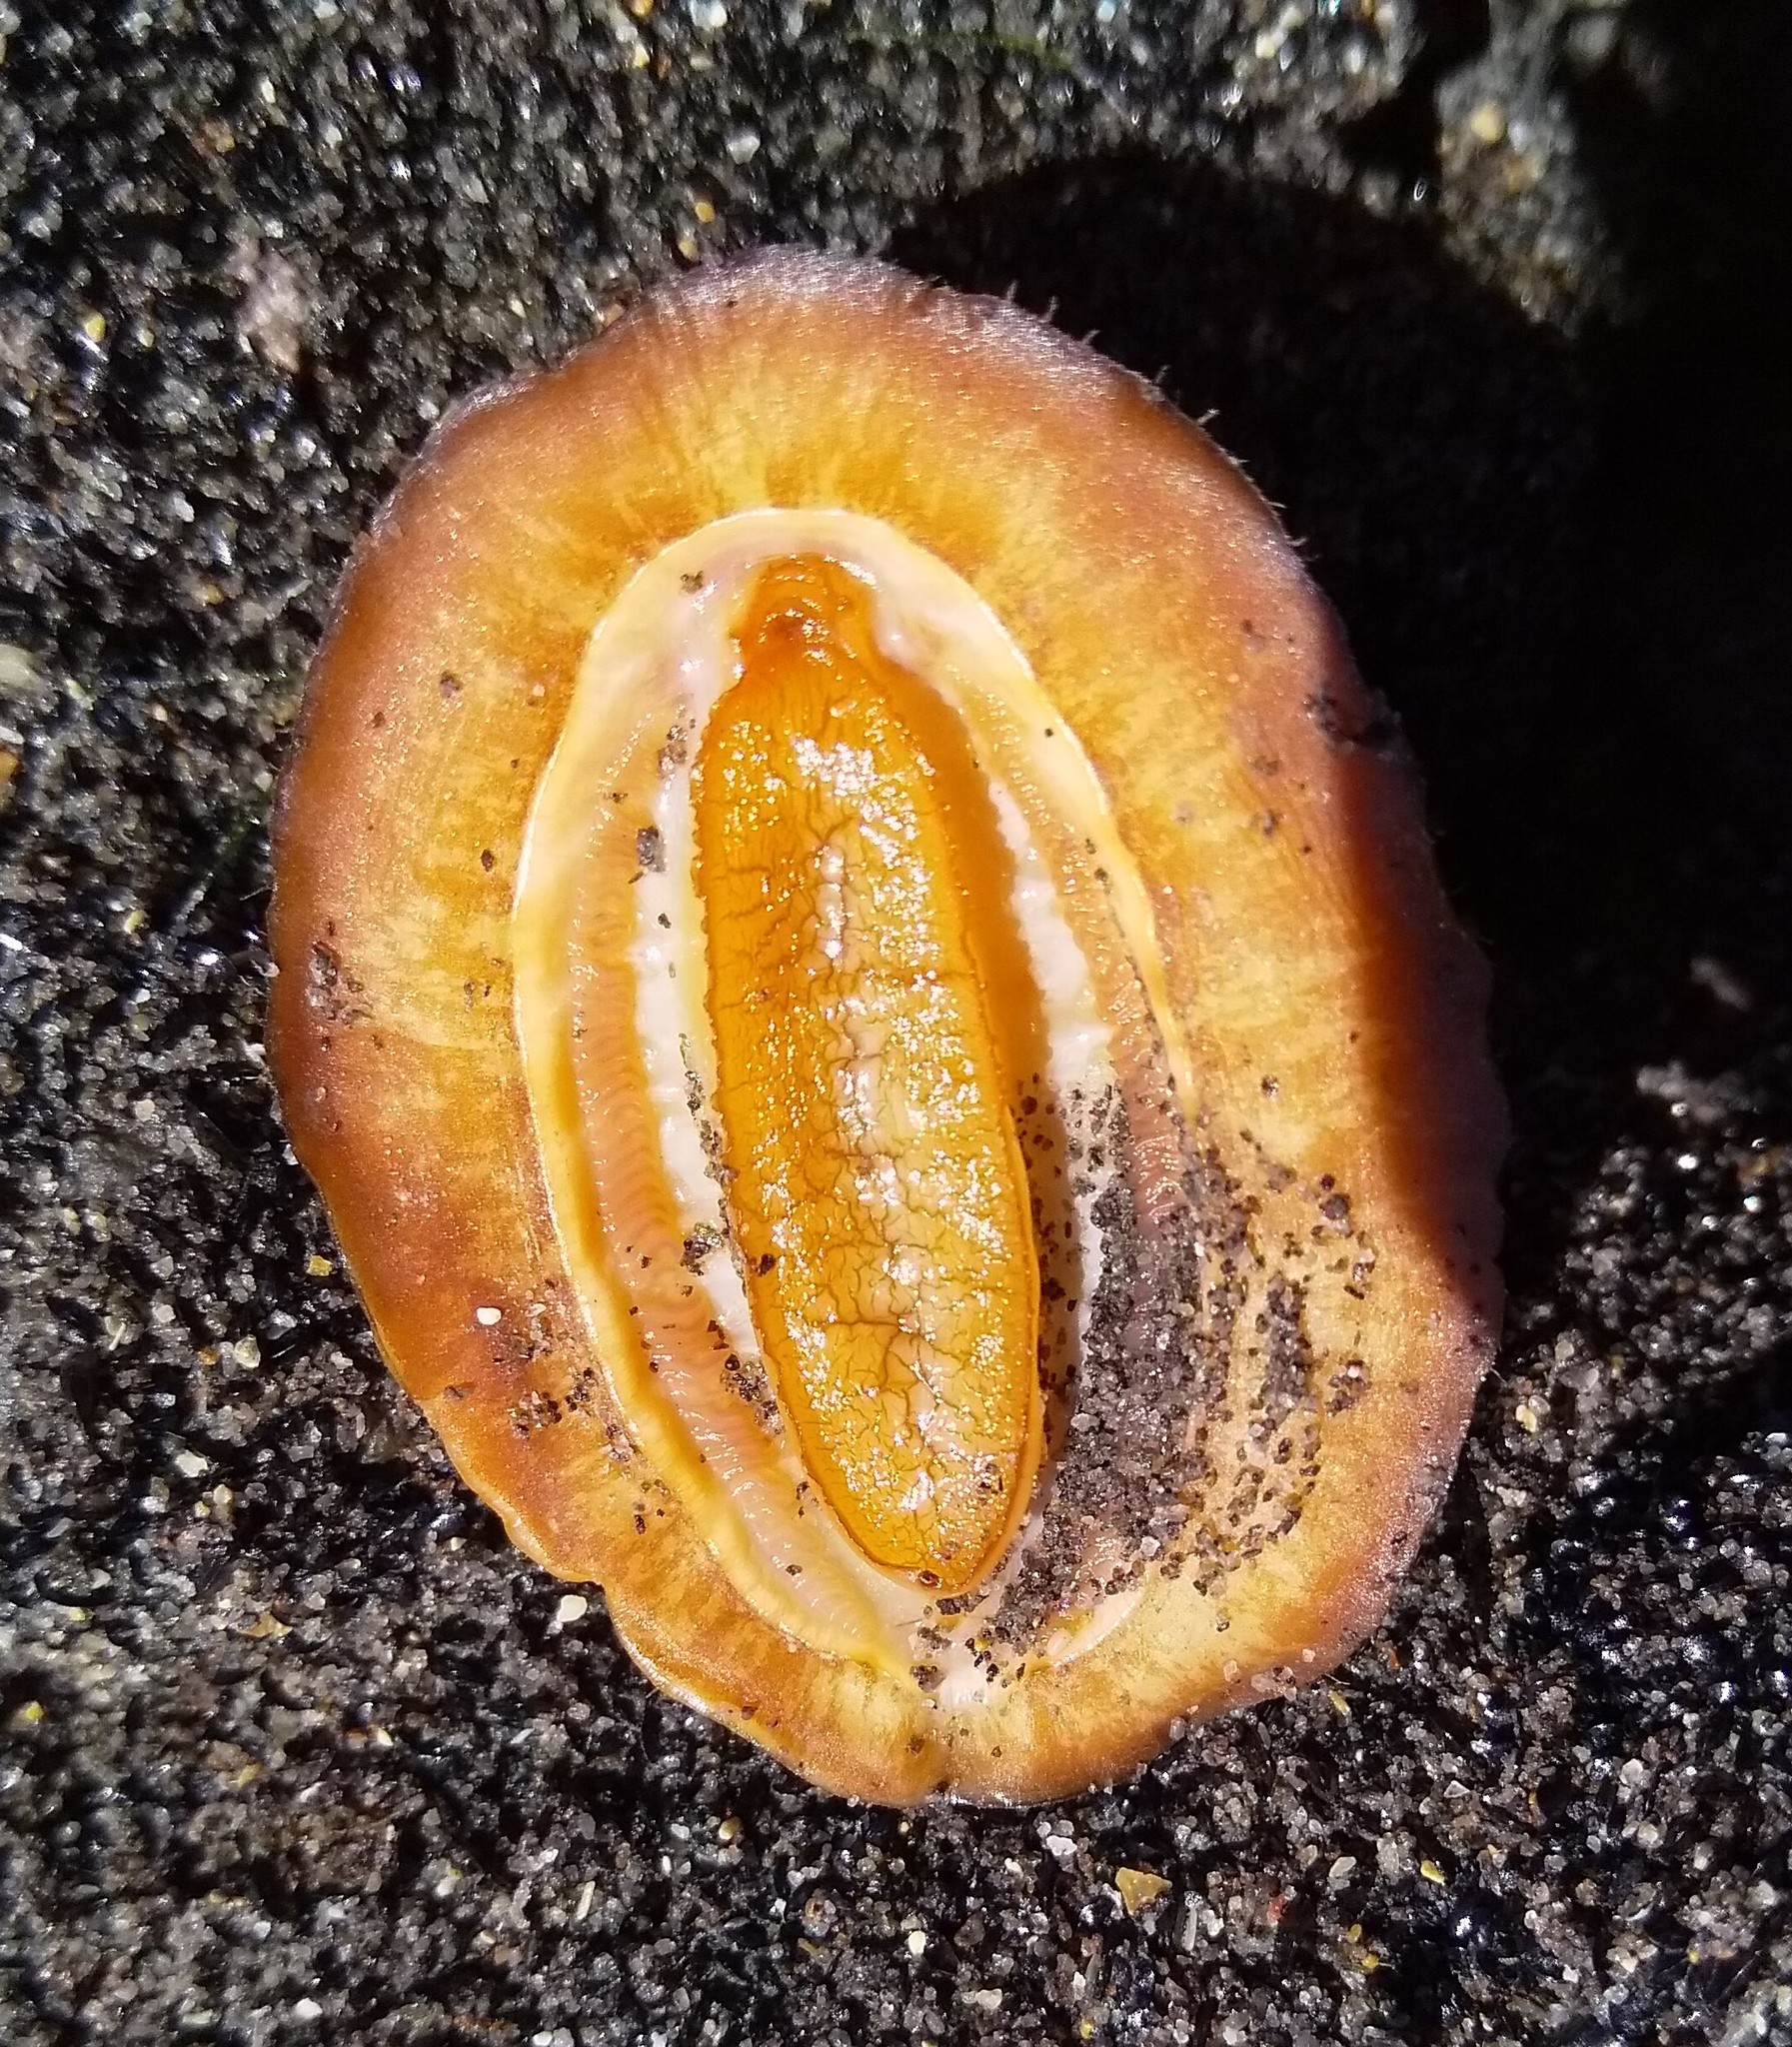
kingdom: Animalia
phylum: Mollusca
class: Polyplacophora
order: Callochitonida
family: Callochitonidae
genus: Eudoxochiton
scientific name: Eudoxochiton nobilis
